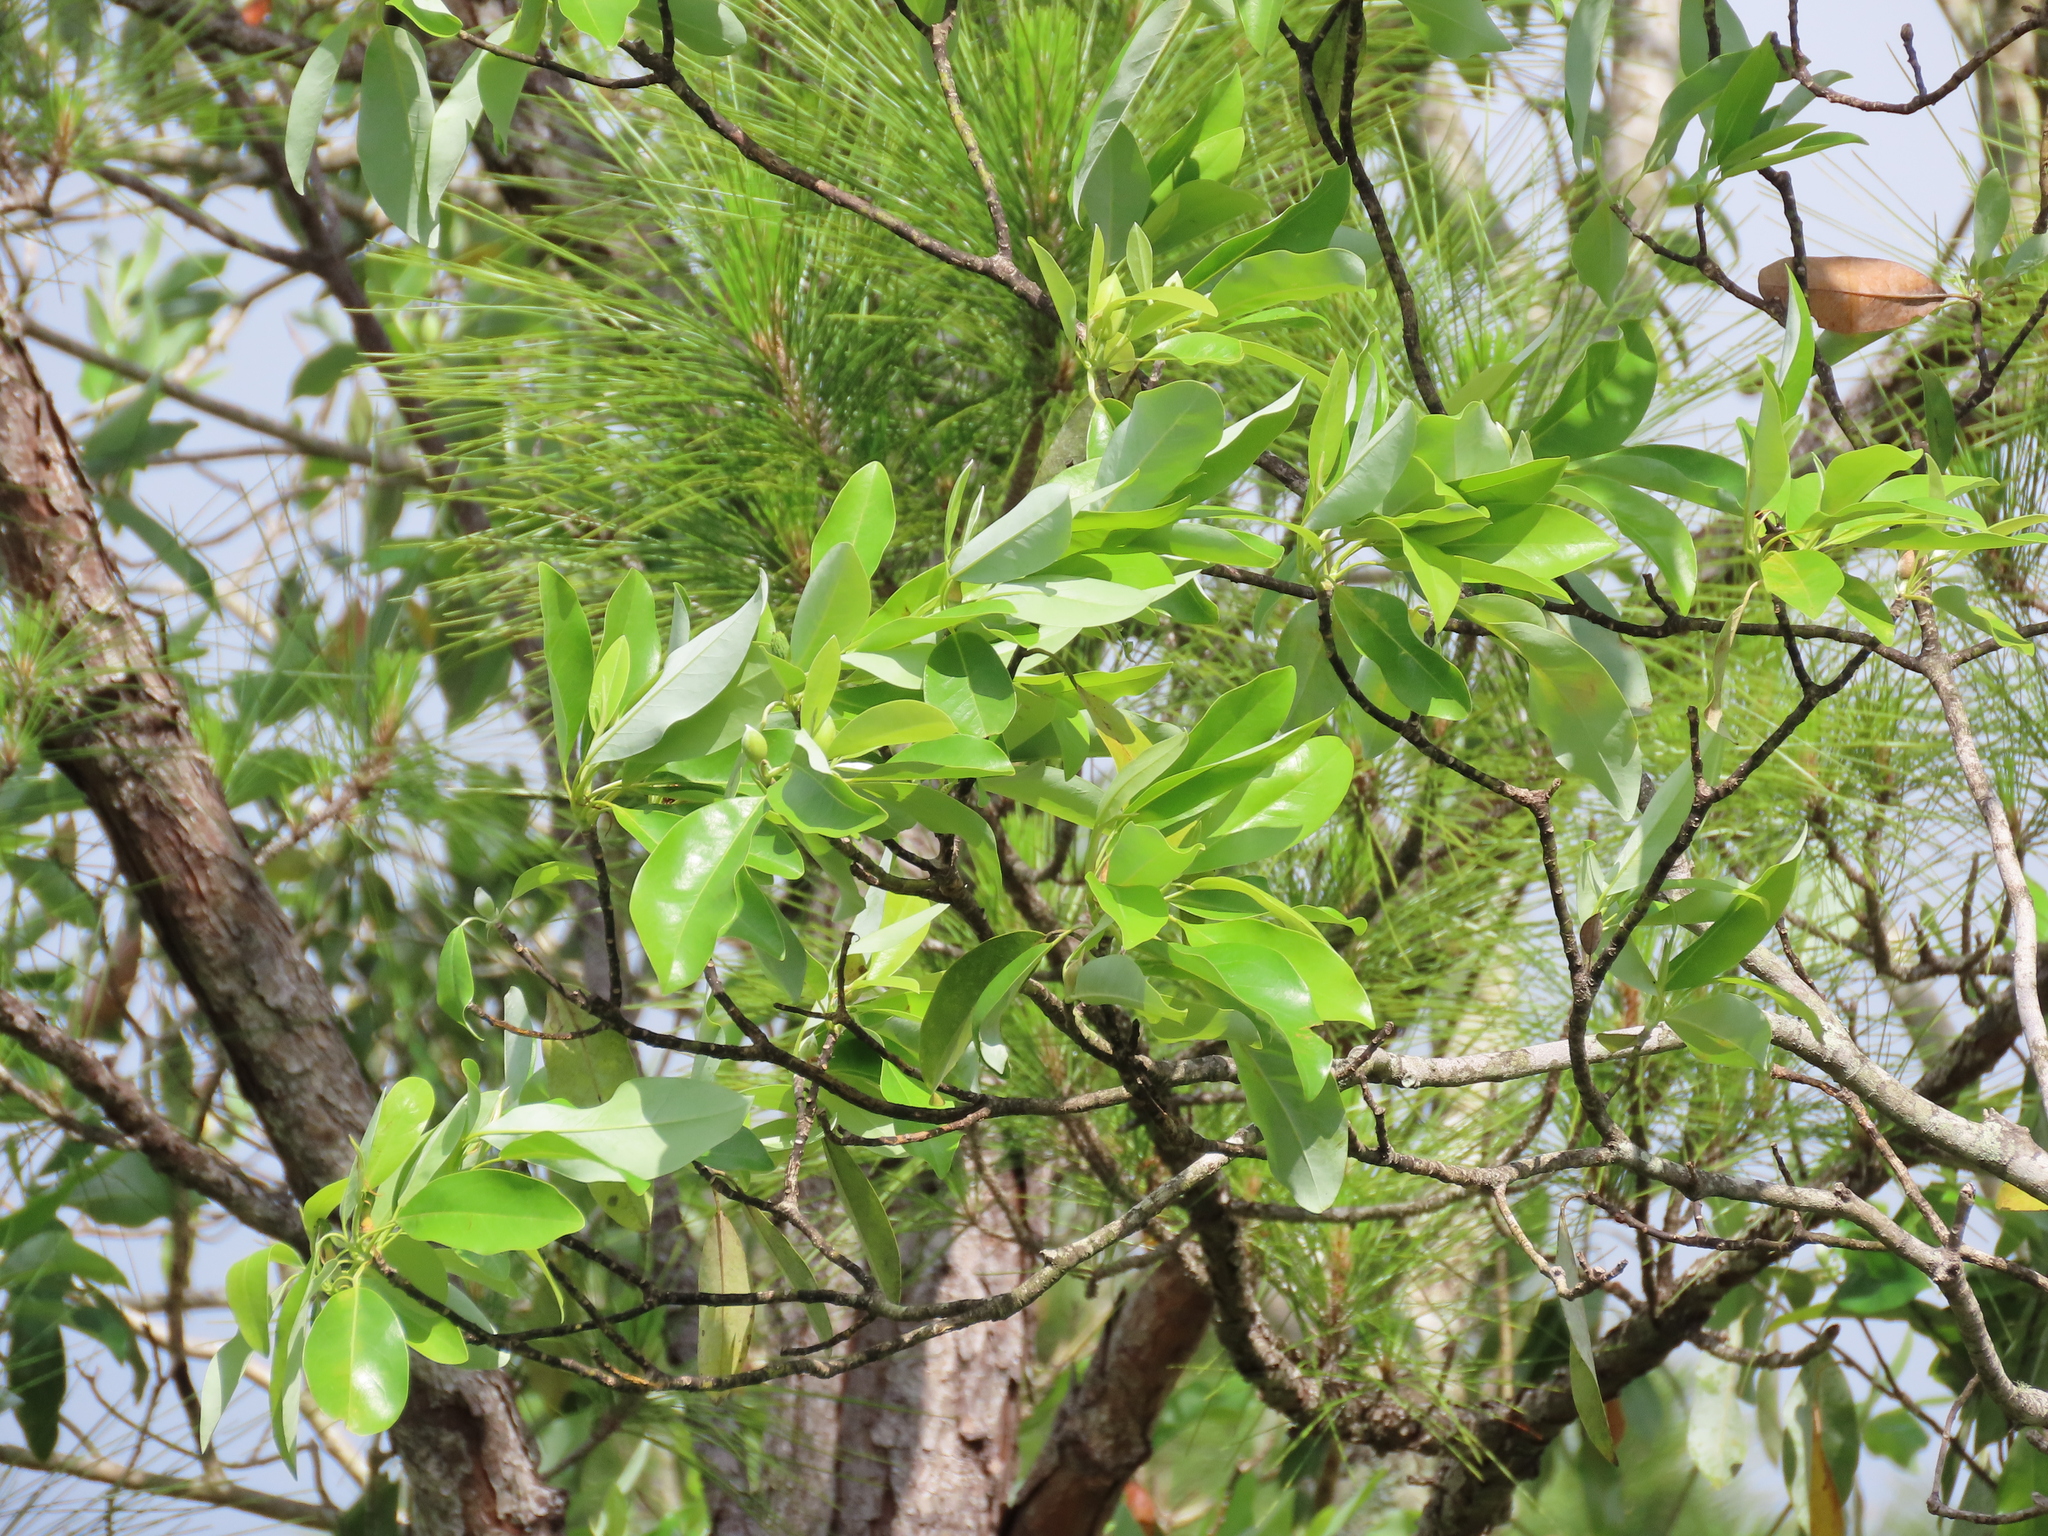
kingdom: Plantae
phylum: Tracheophyta
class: Magnoliopsida
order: Magnoliales
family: Magnoliaceae
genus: Magnolia
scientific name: Magnolia virginiana
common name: Swamp bay
